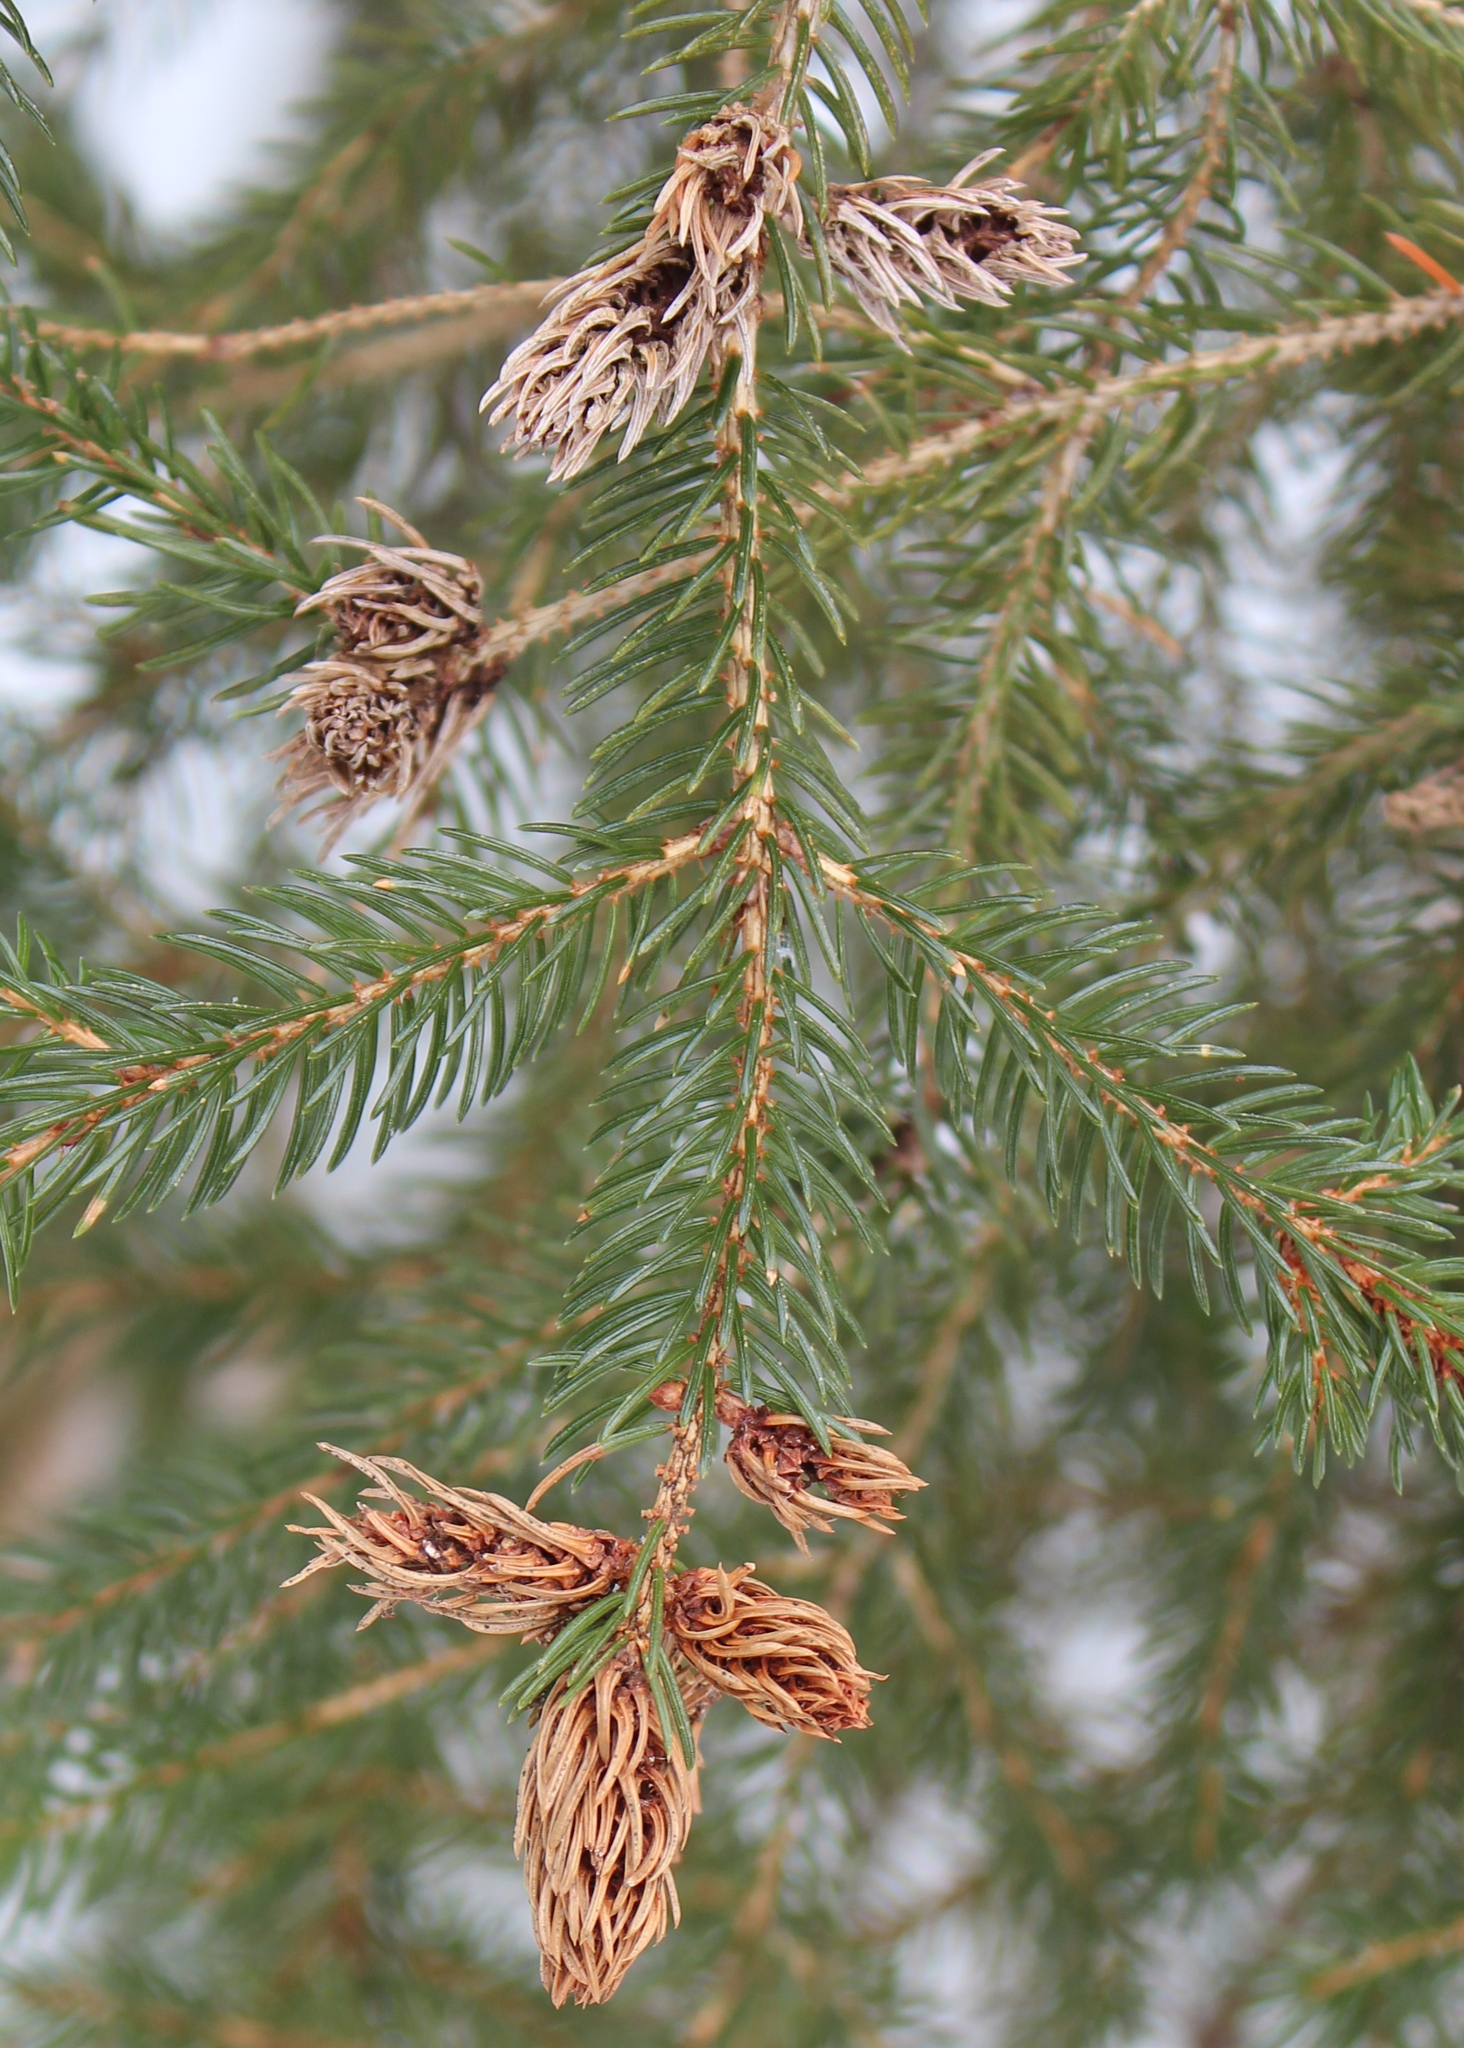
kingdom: Animalia
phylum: Arthropoda
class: Insecta
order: Hemiptera
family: Adelgidae
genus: Adelges
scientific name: Adelges abietis
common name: Eastern spruce gall adelgid
